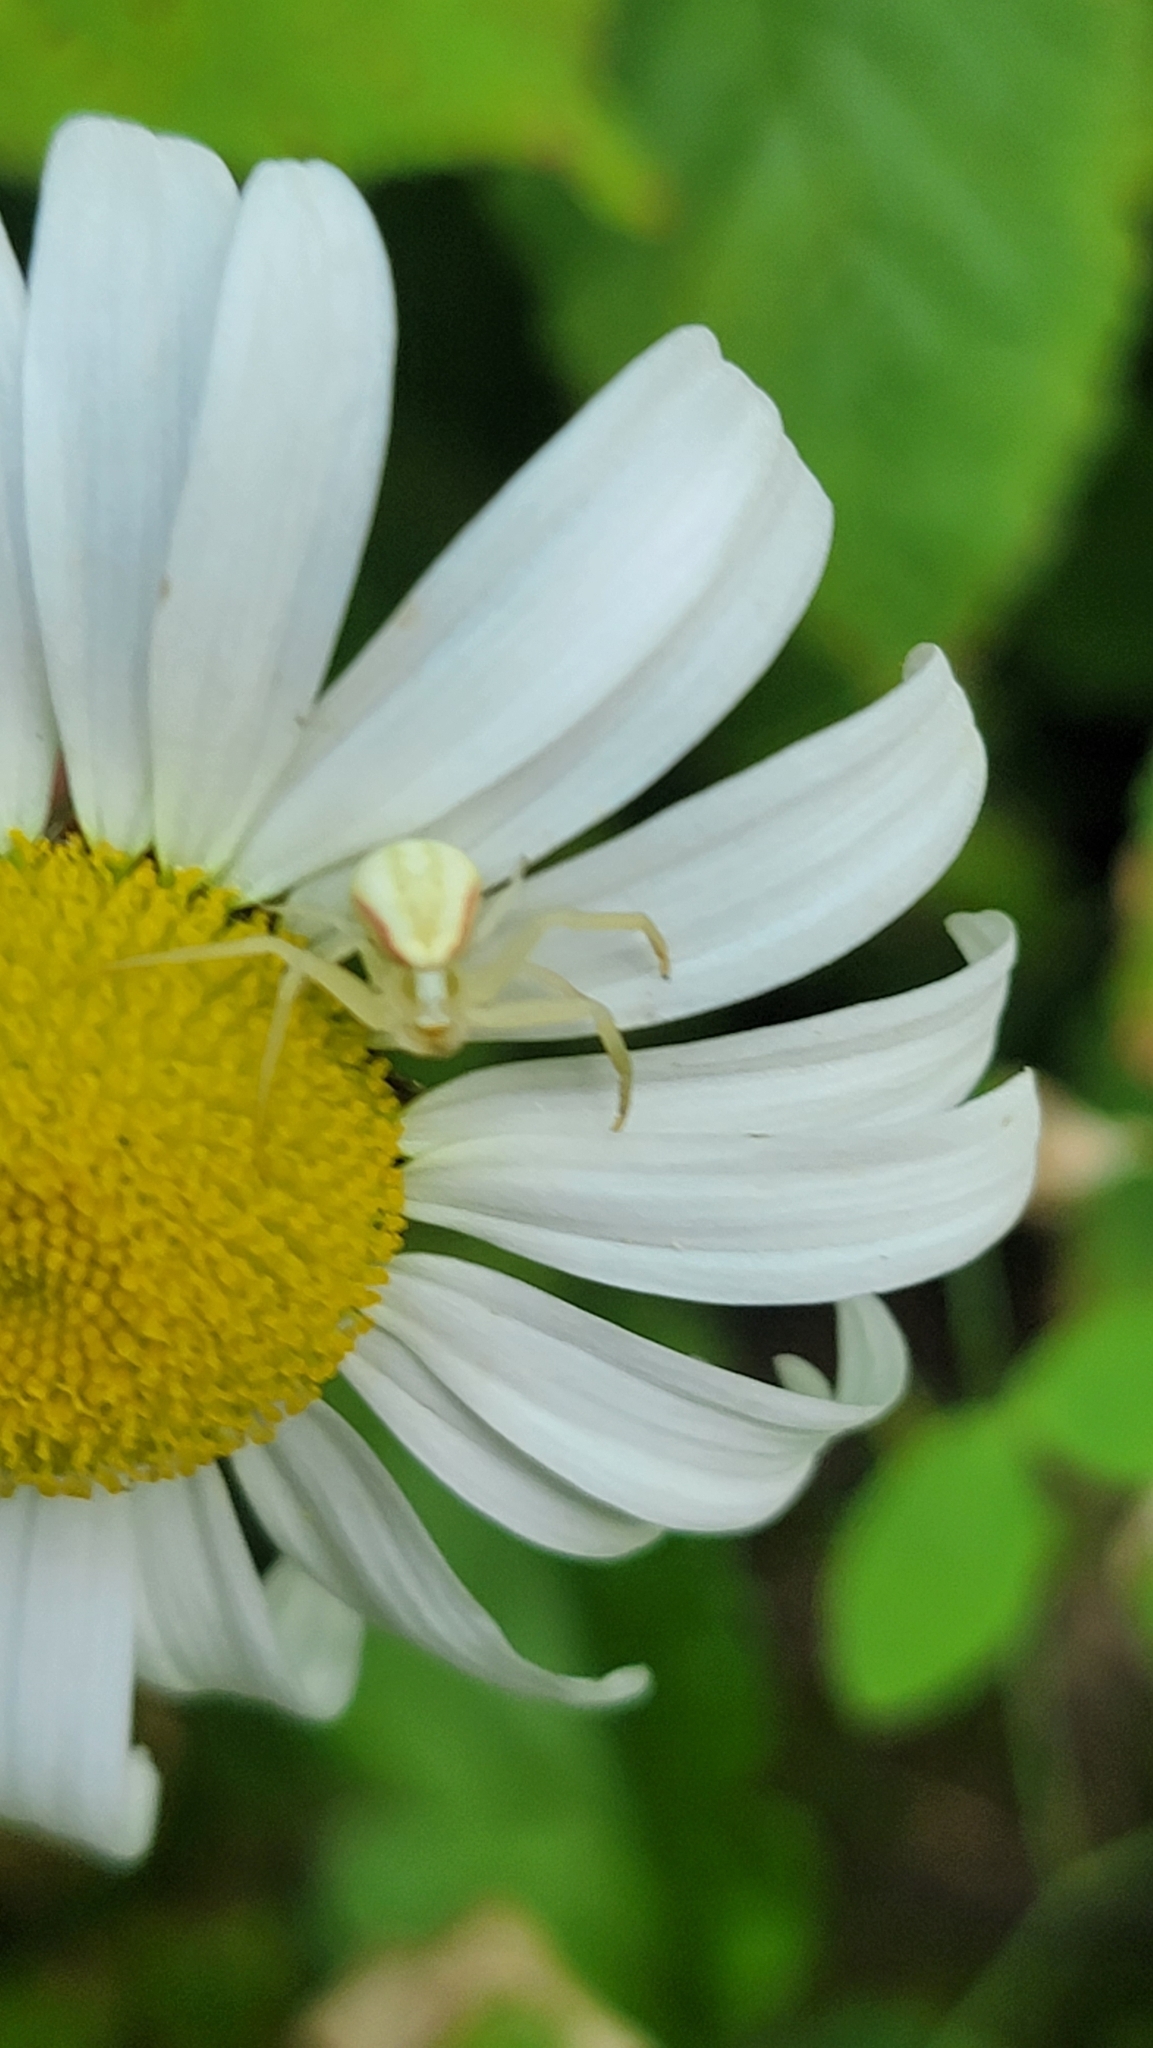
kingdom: Animalia
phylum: Arthropoda
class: Arachnida
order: Araneae
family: Thomisidae
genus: Misumena
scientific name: Misumena vatia
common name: Goldenrod crab spider
